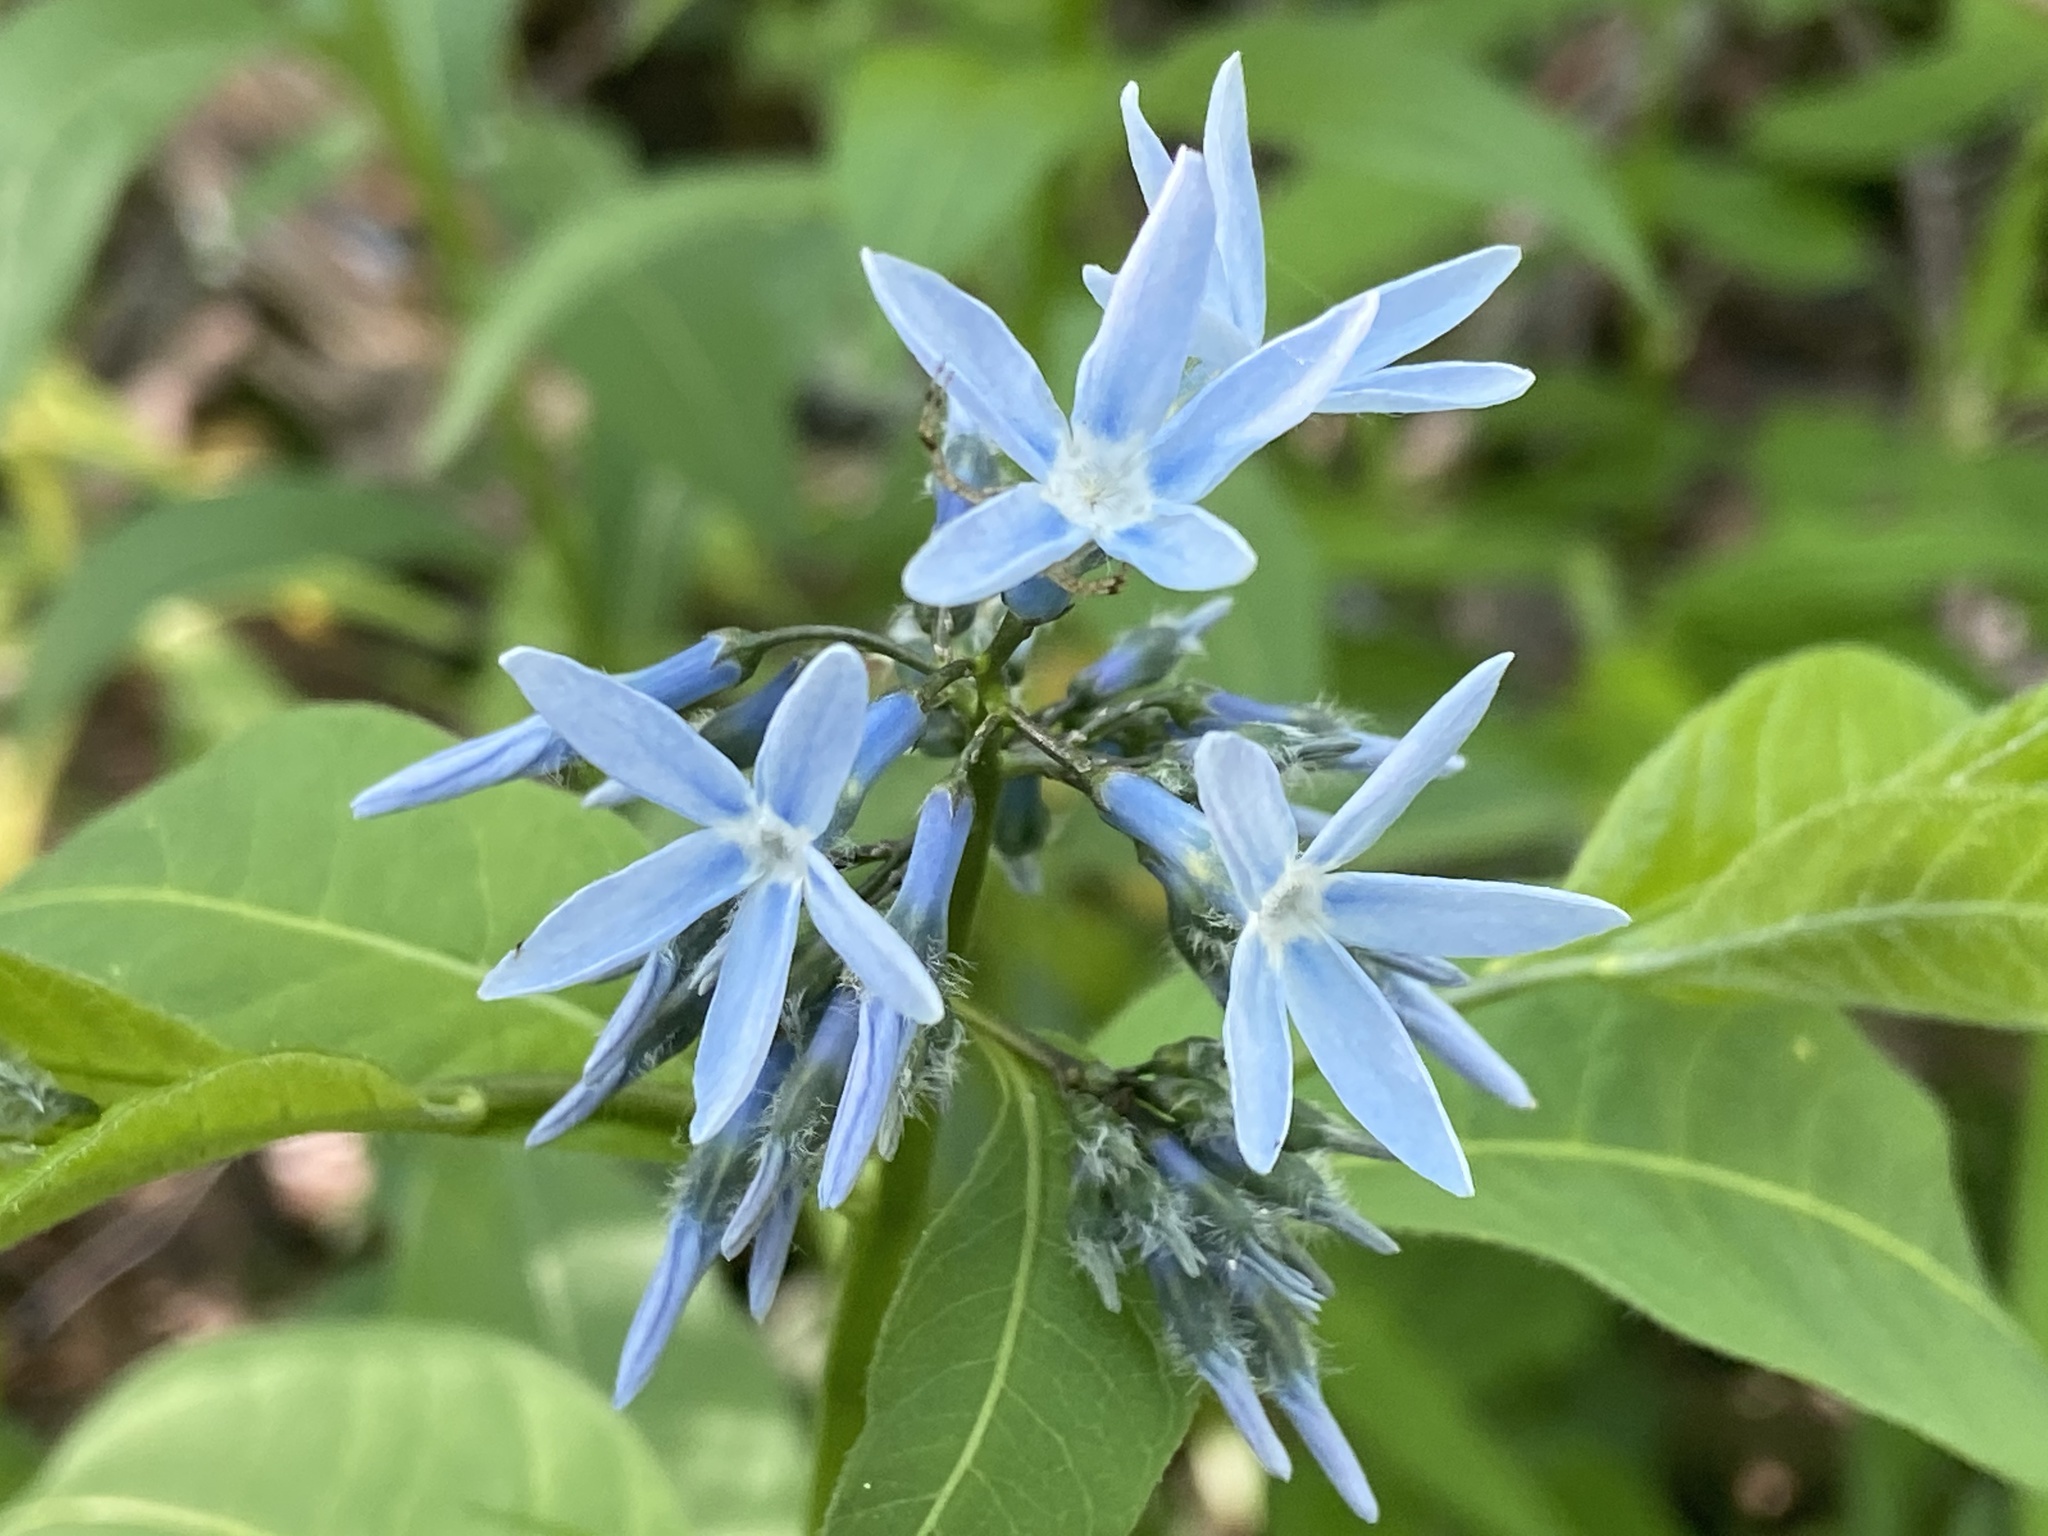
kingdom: Plantae
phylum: Tracheophyta
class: Magnoliopsida
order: Gentianales
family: Apocynaceae
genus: Amsonia
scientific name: Amsonia tabernaemontana
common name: Texas-star
